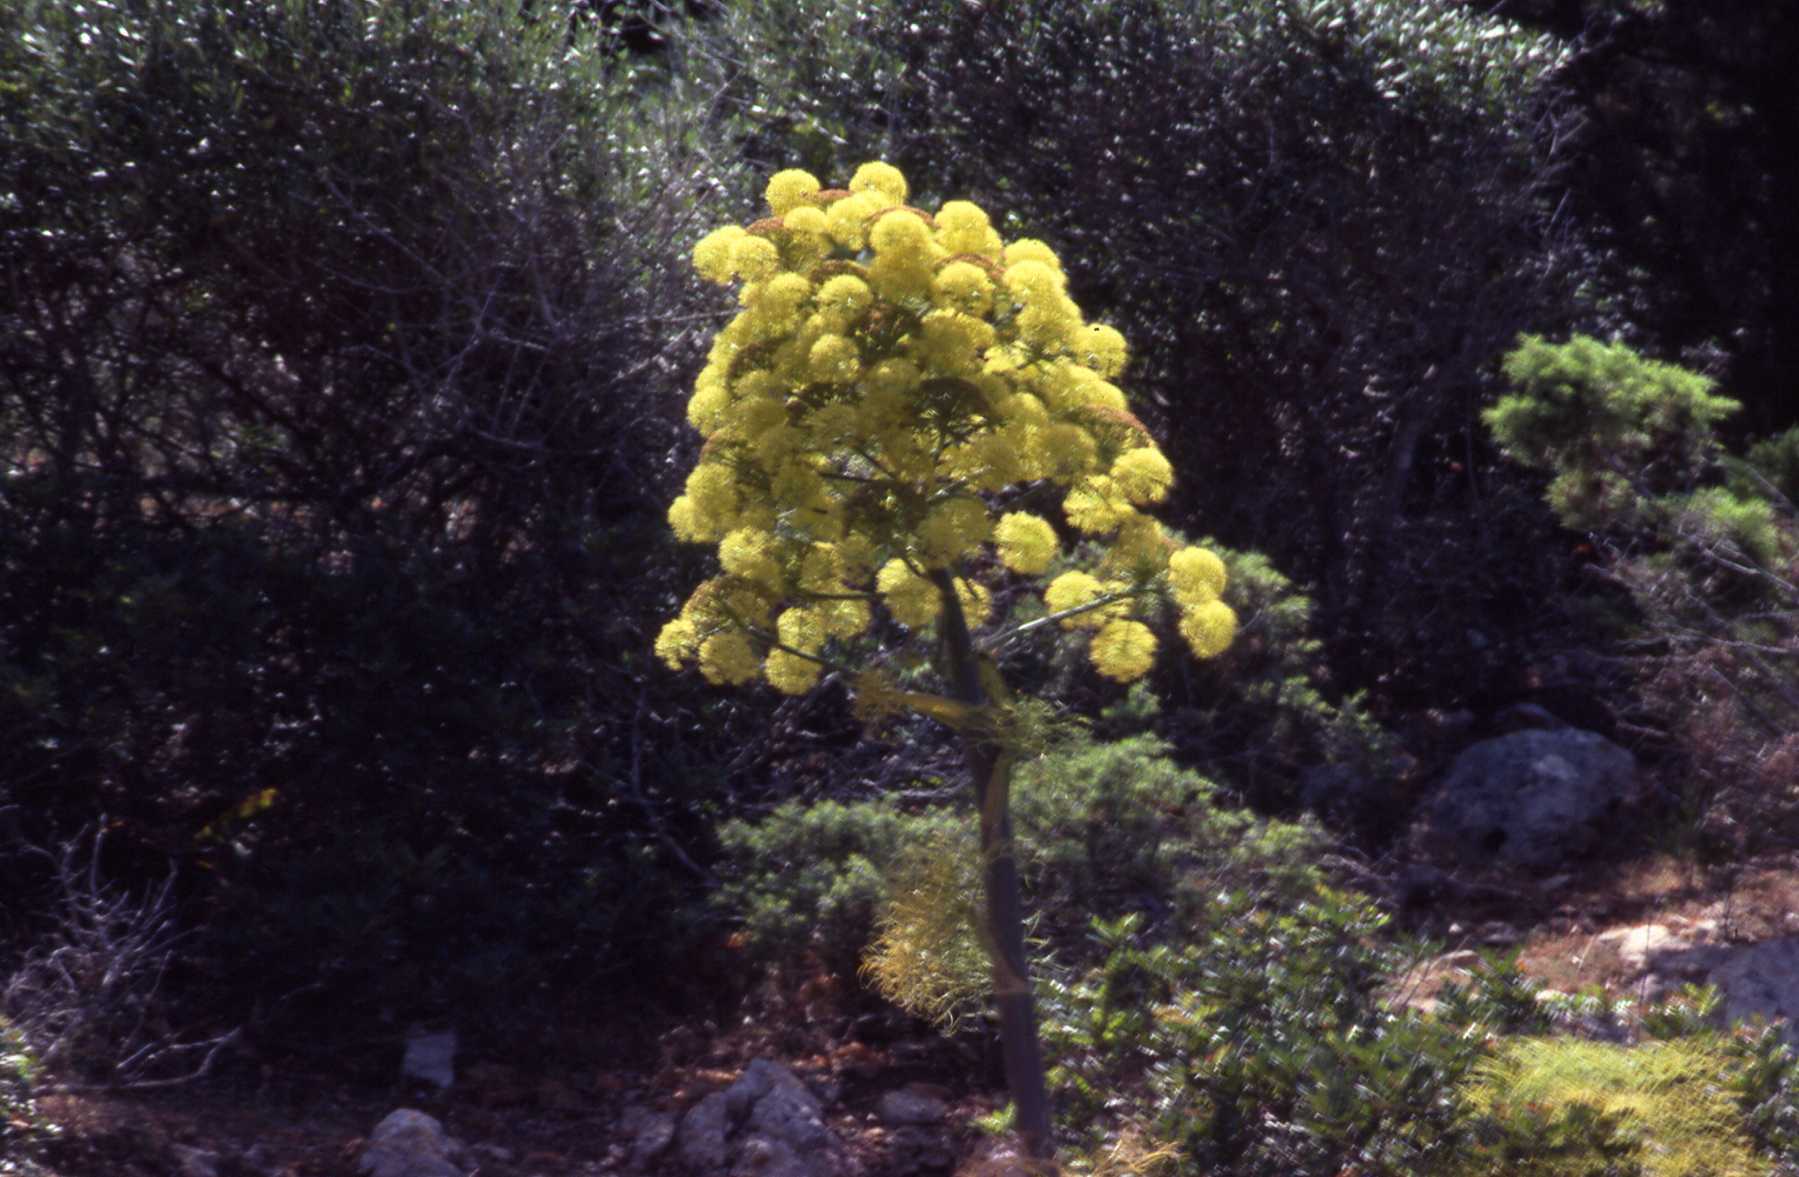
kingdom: Plantae
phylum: Tracheophyta
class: Magnoliopsida
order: Apiales
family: Apiaceae
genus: Ferula
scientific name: Ferula communis
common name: Giant fennel
